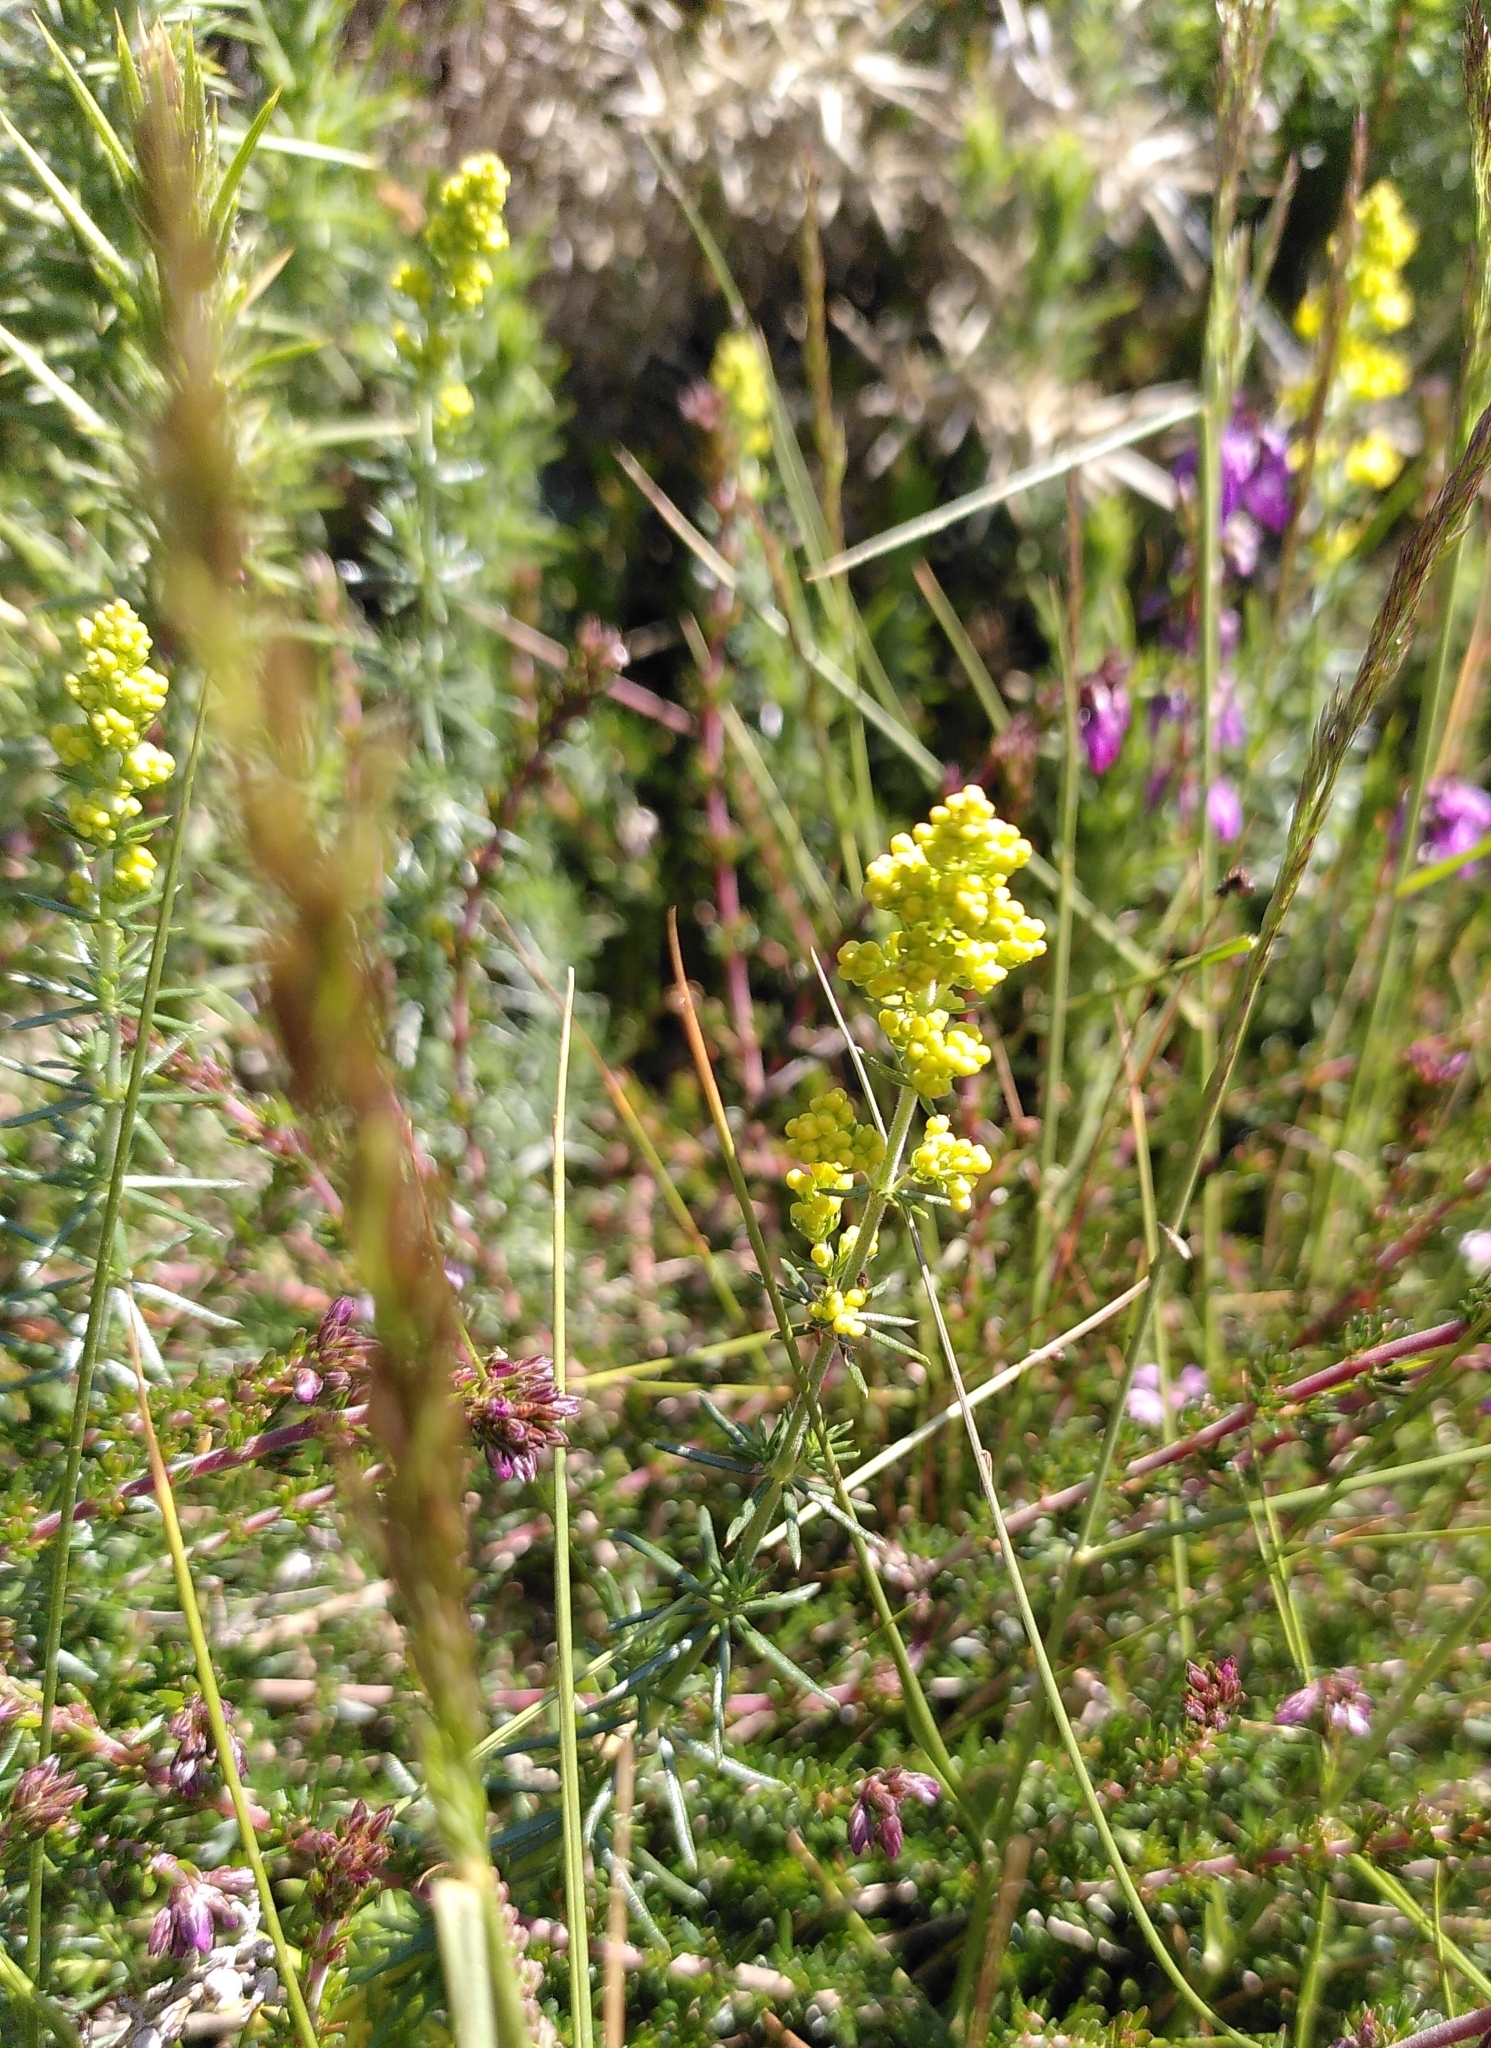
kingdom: Plantae
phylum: Tracheophyta
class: Magnoliopsida
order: Gentianales
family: Rubiaceae
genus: Galium
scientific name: Galium verum
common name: Lady's bedstraw
